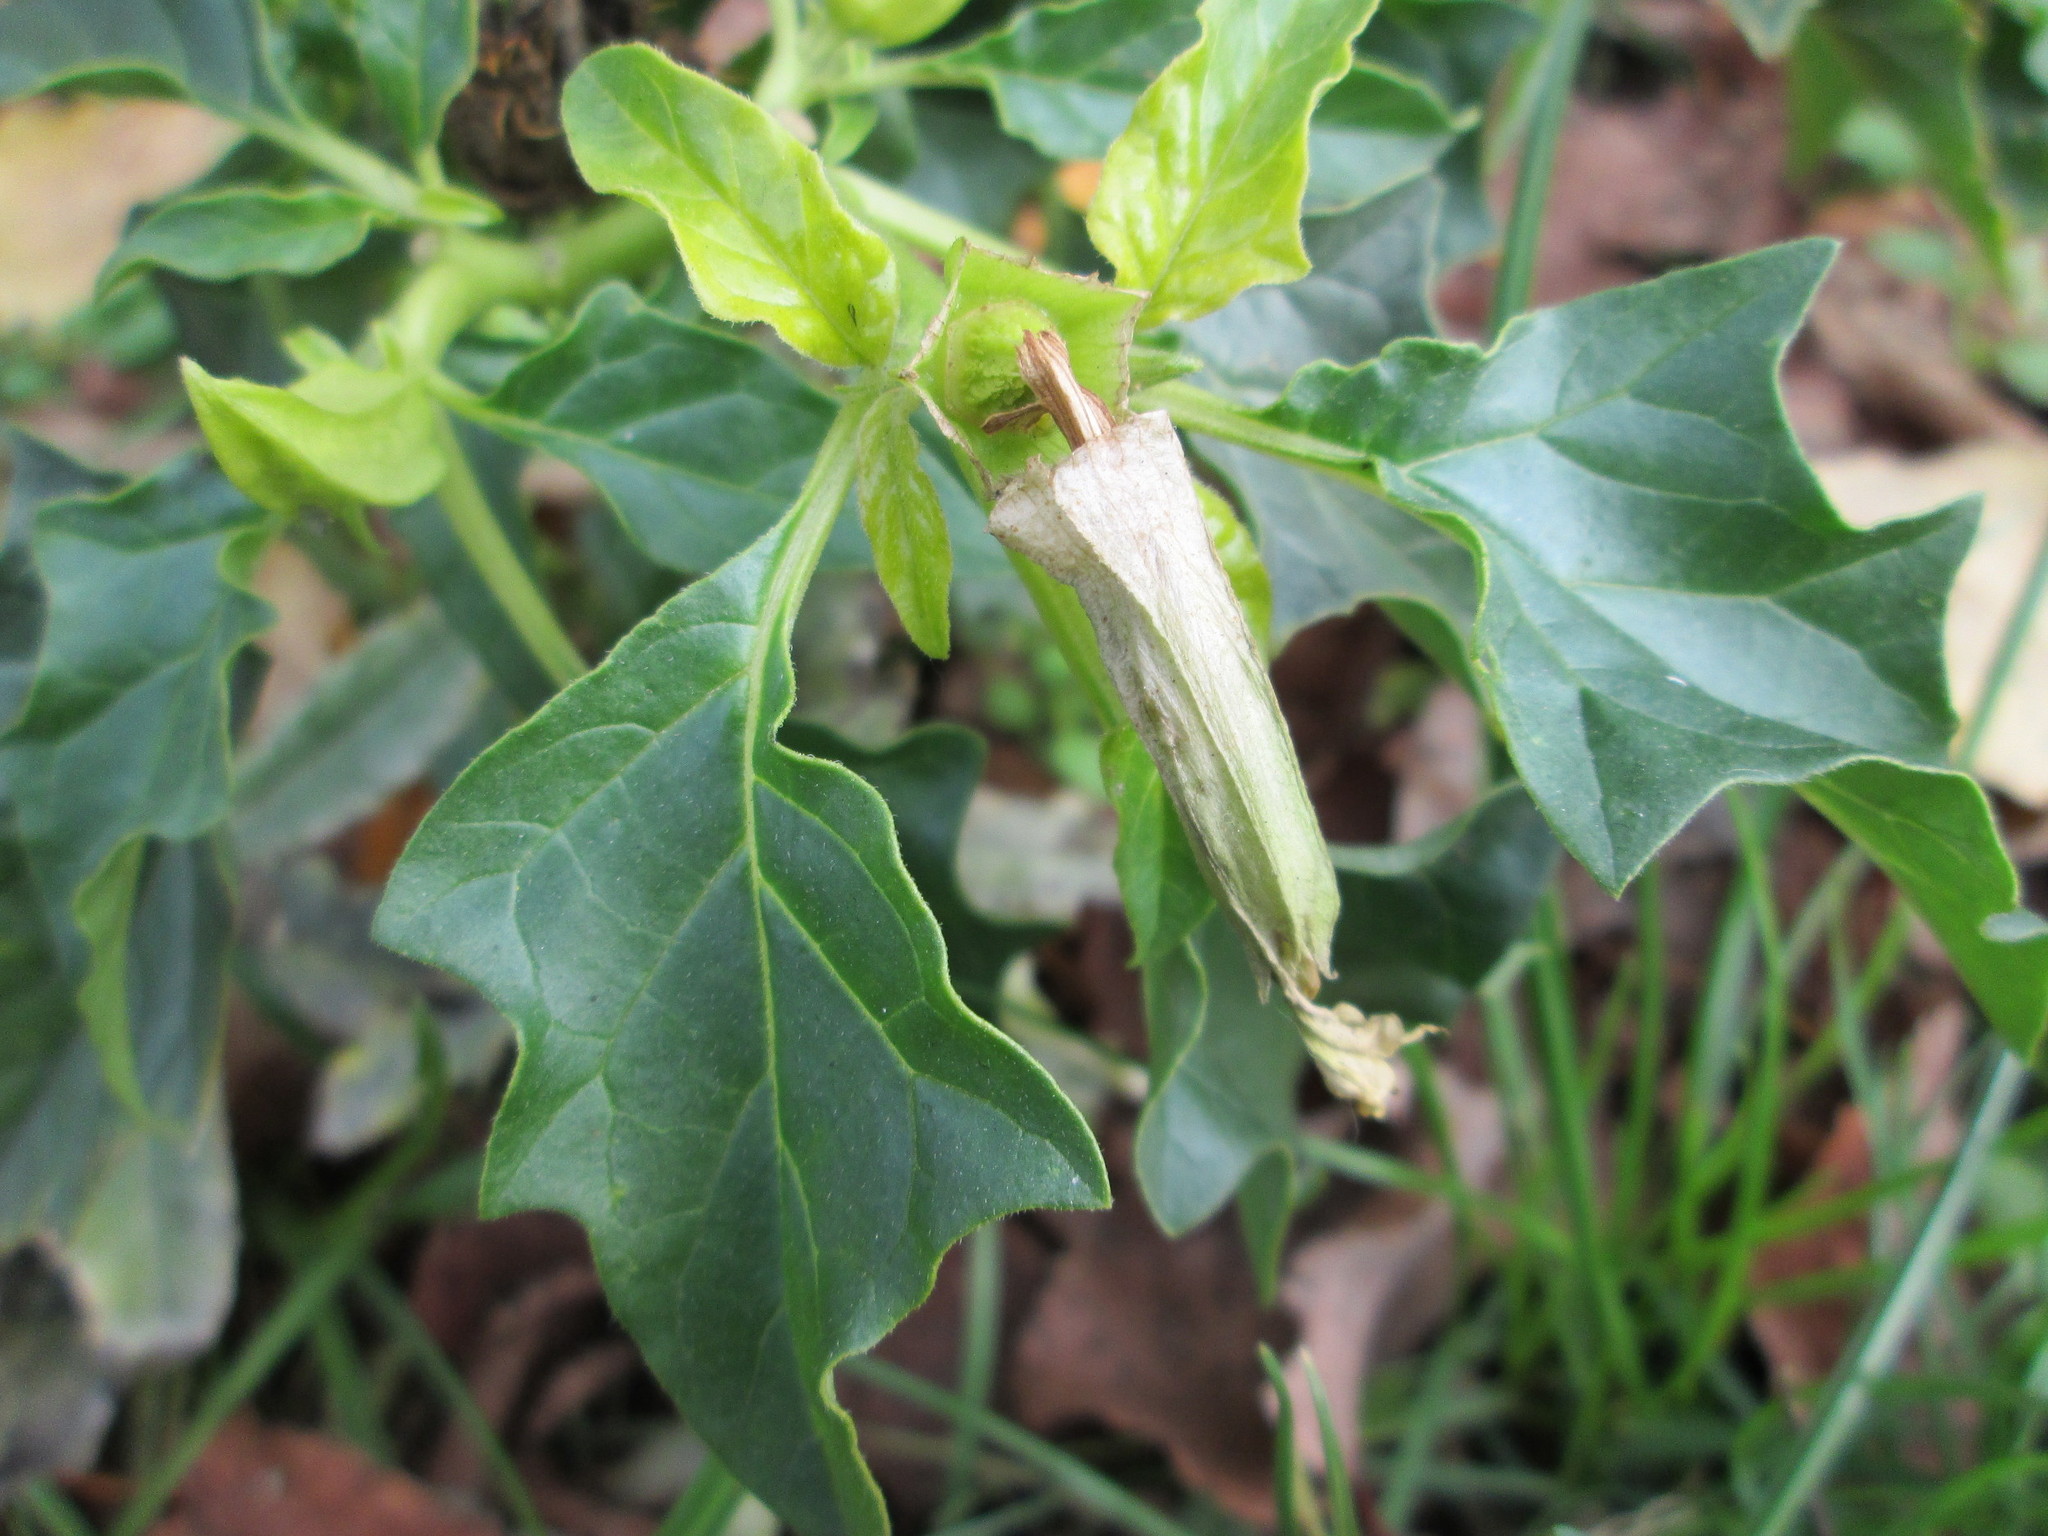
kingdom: Plantae
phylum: Tracheophyta
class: Magnoliopsida
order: Solanales
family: Solanaceae
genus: Datura
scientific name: Datura stramonium
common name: Thorn-apple
